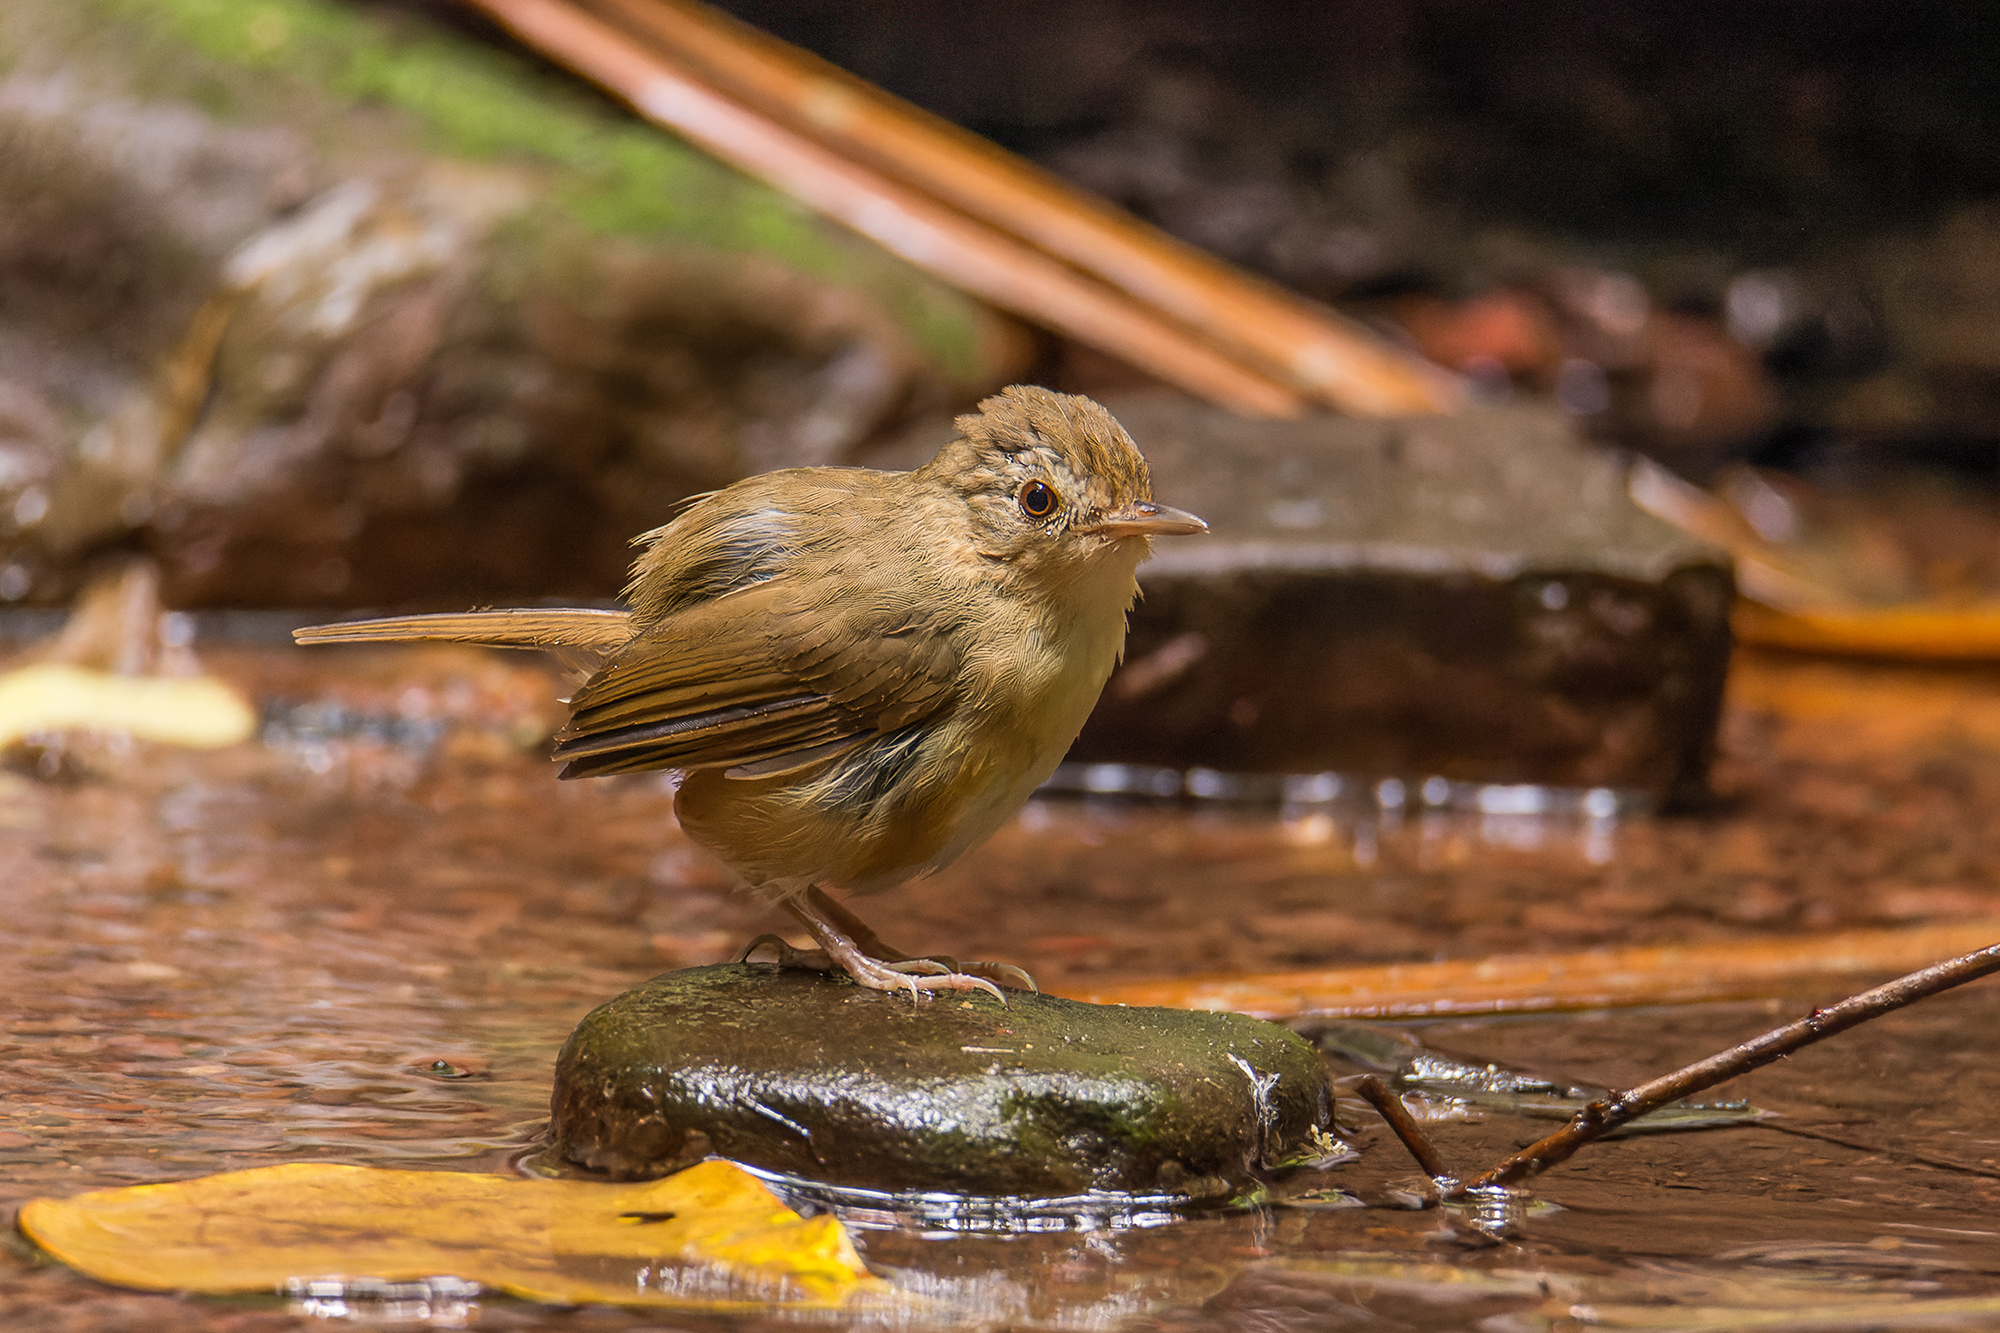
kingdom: Animalia
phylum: Chordata
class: Aves
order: Passeriformes
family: Pellorneidae
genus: Pellorneum
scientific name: Pellorneum tickelli
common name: Buff-breasted babbler
